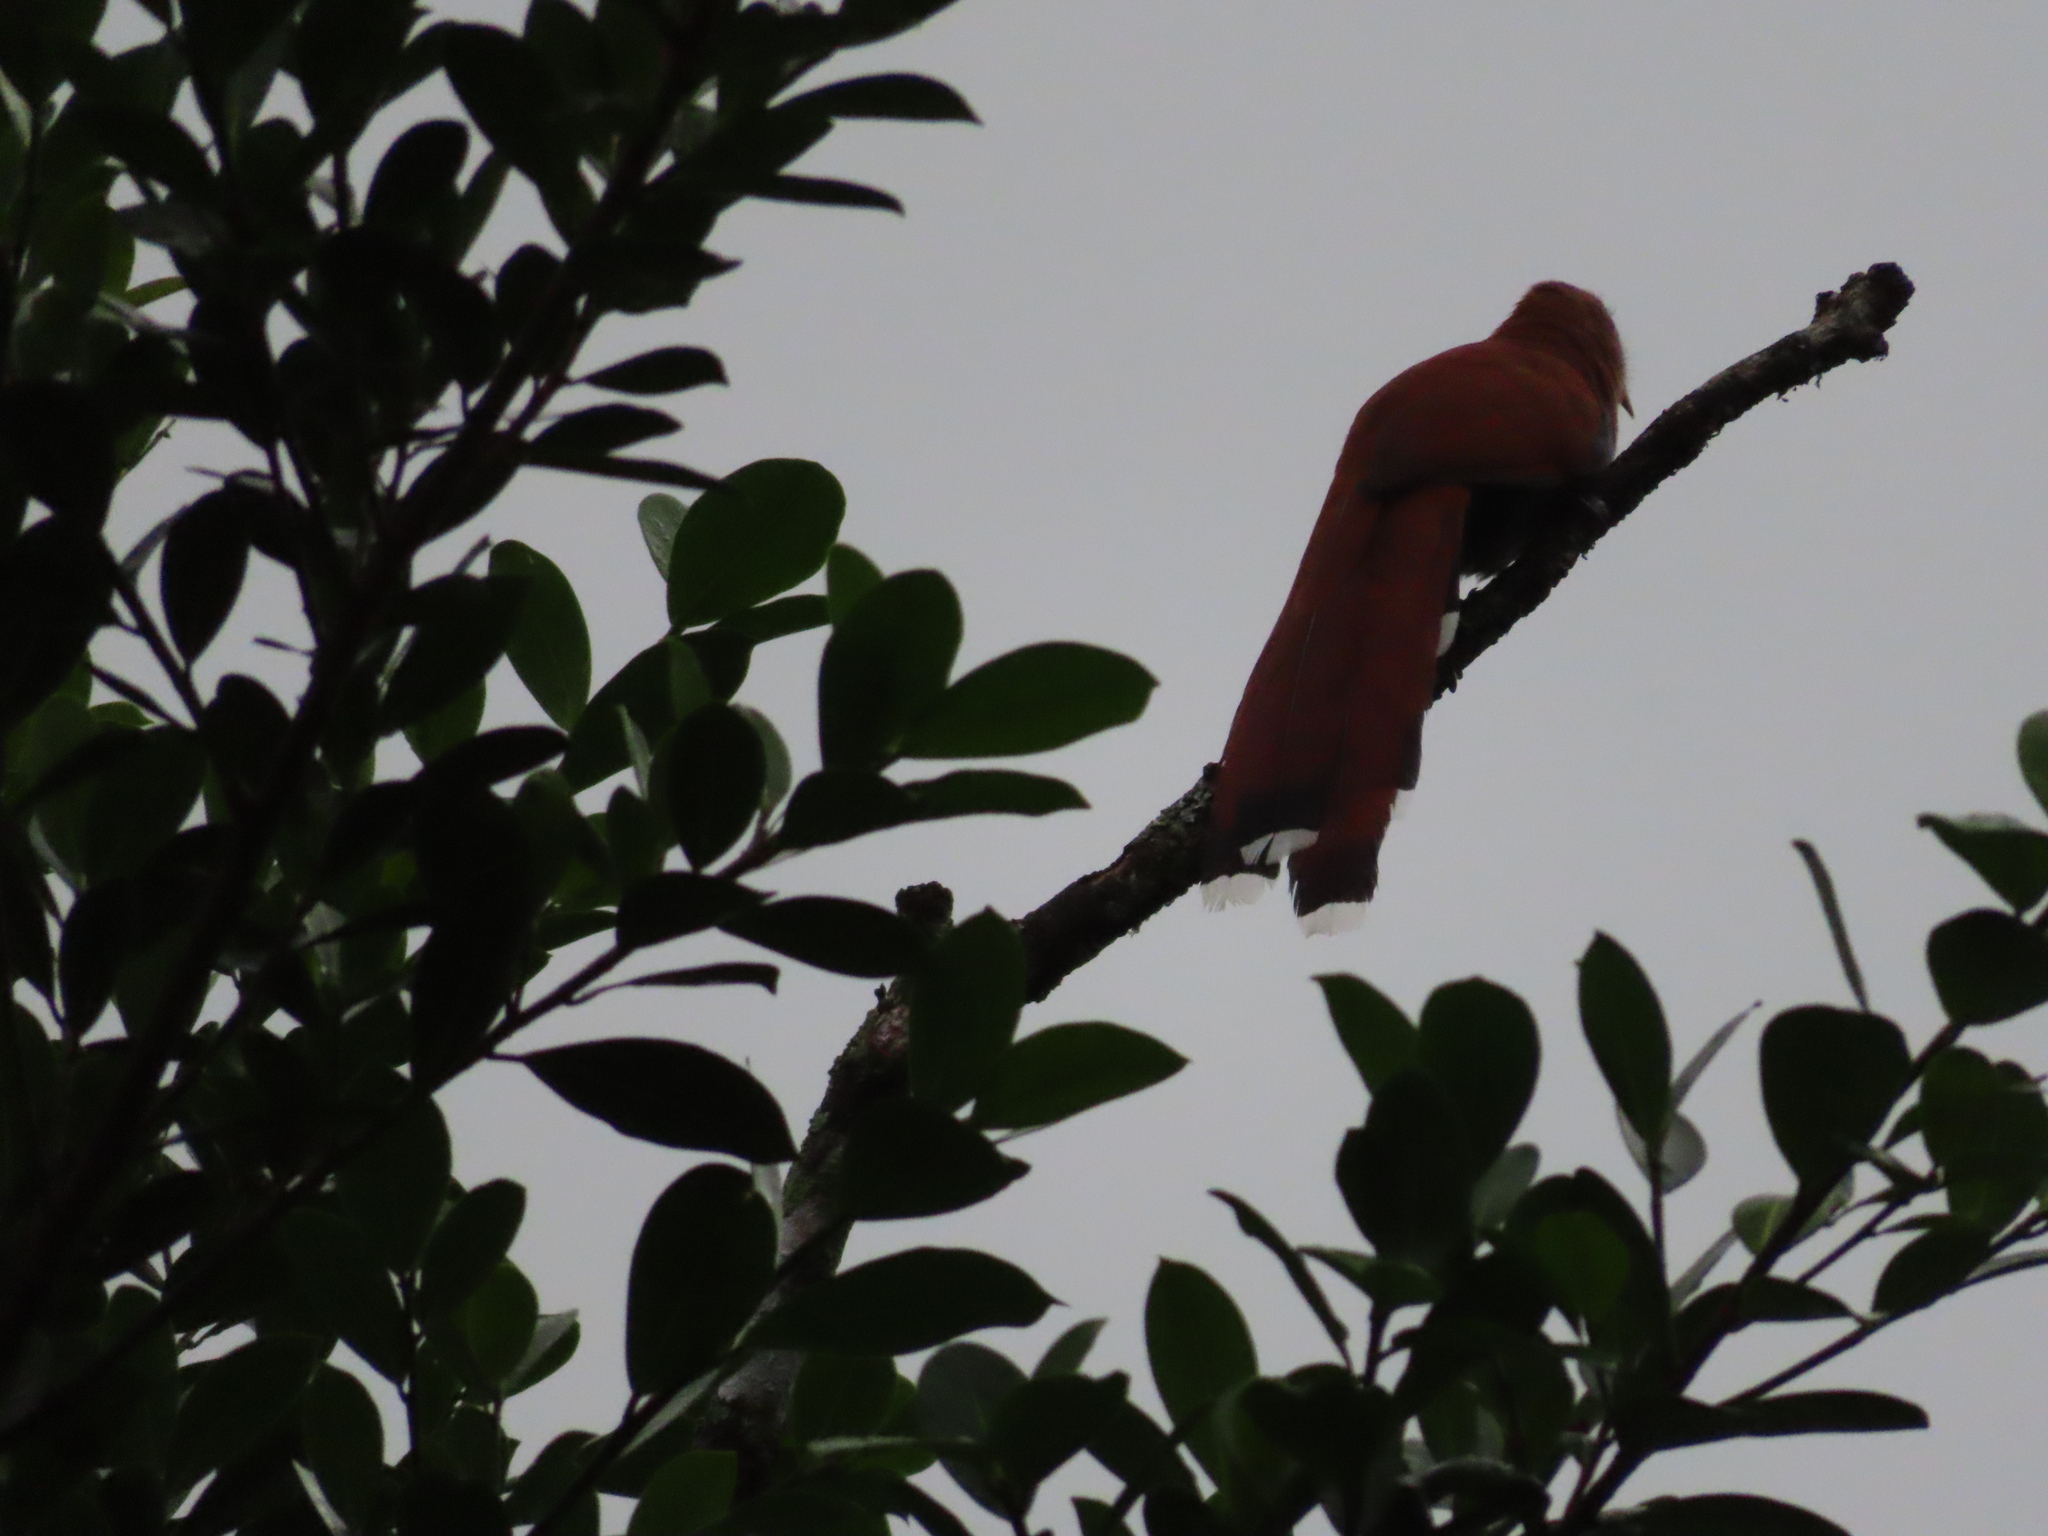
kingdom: Animalia
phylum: Chordata
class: Aves
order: Cuculiformes
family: Cuculidae
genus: Piaya
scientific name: Piaya cayana
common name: Squirrel cuckoo
